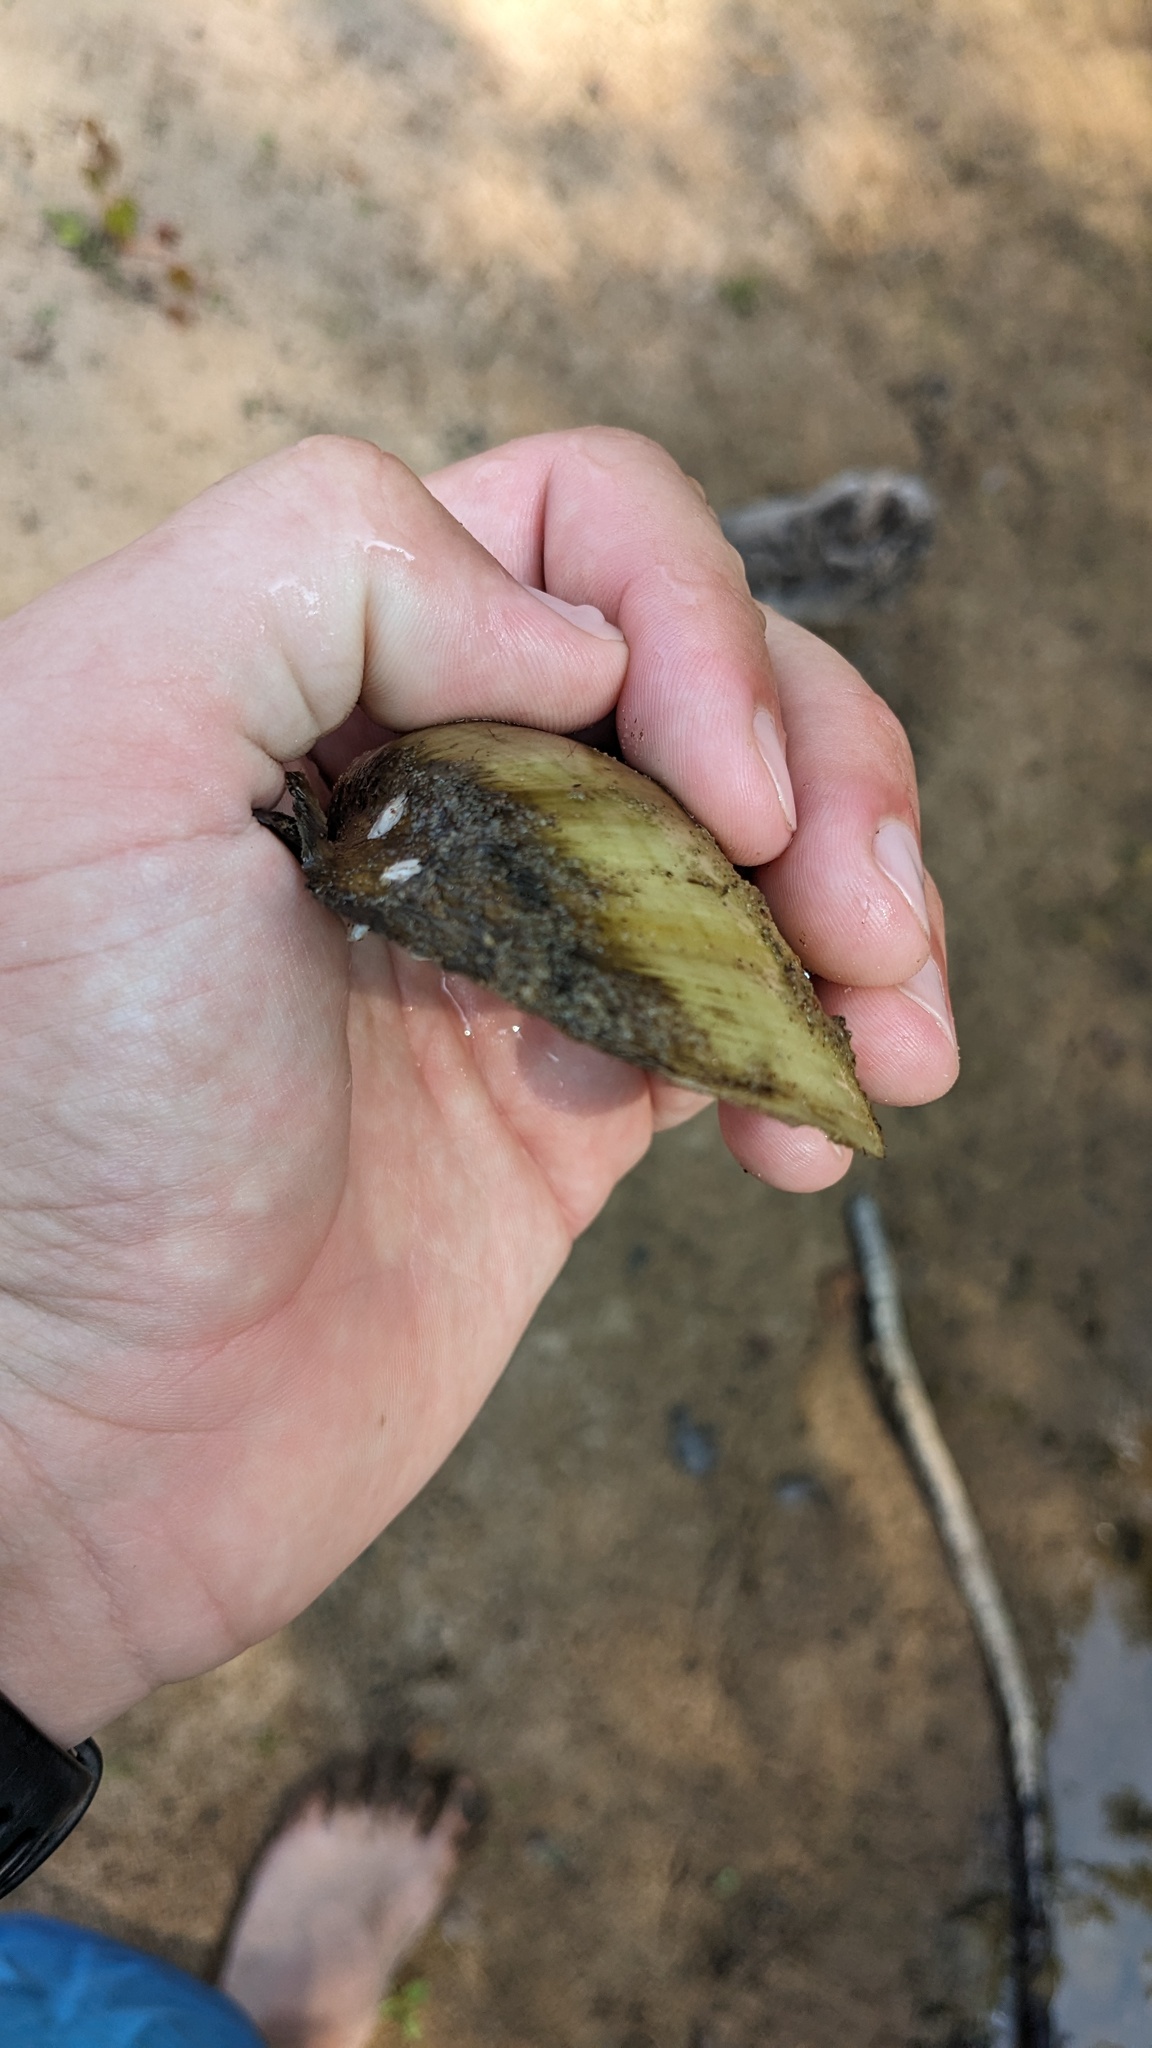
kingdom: Animalia
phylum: Mollusca
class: Bivalvia
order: Unionida
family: Unionidae
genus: Lampsilis
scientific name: Lampsilis cardium
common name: Plain pocketbook
